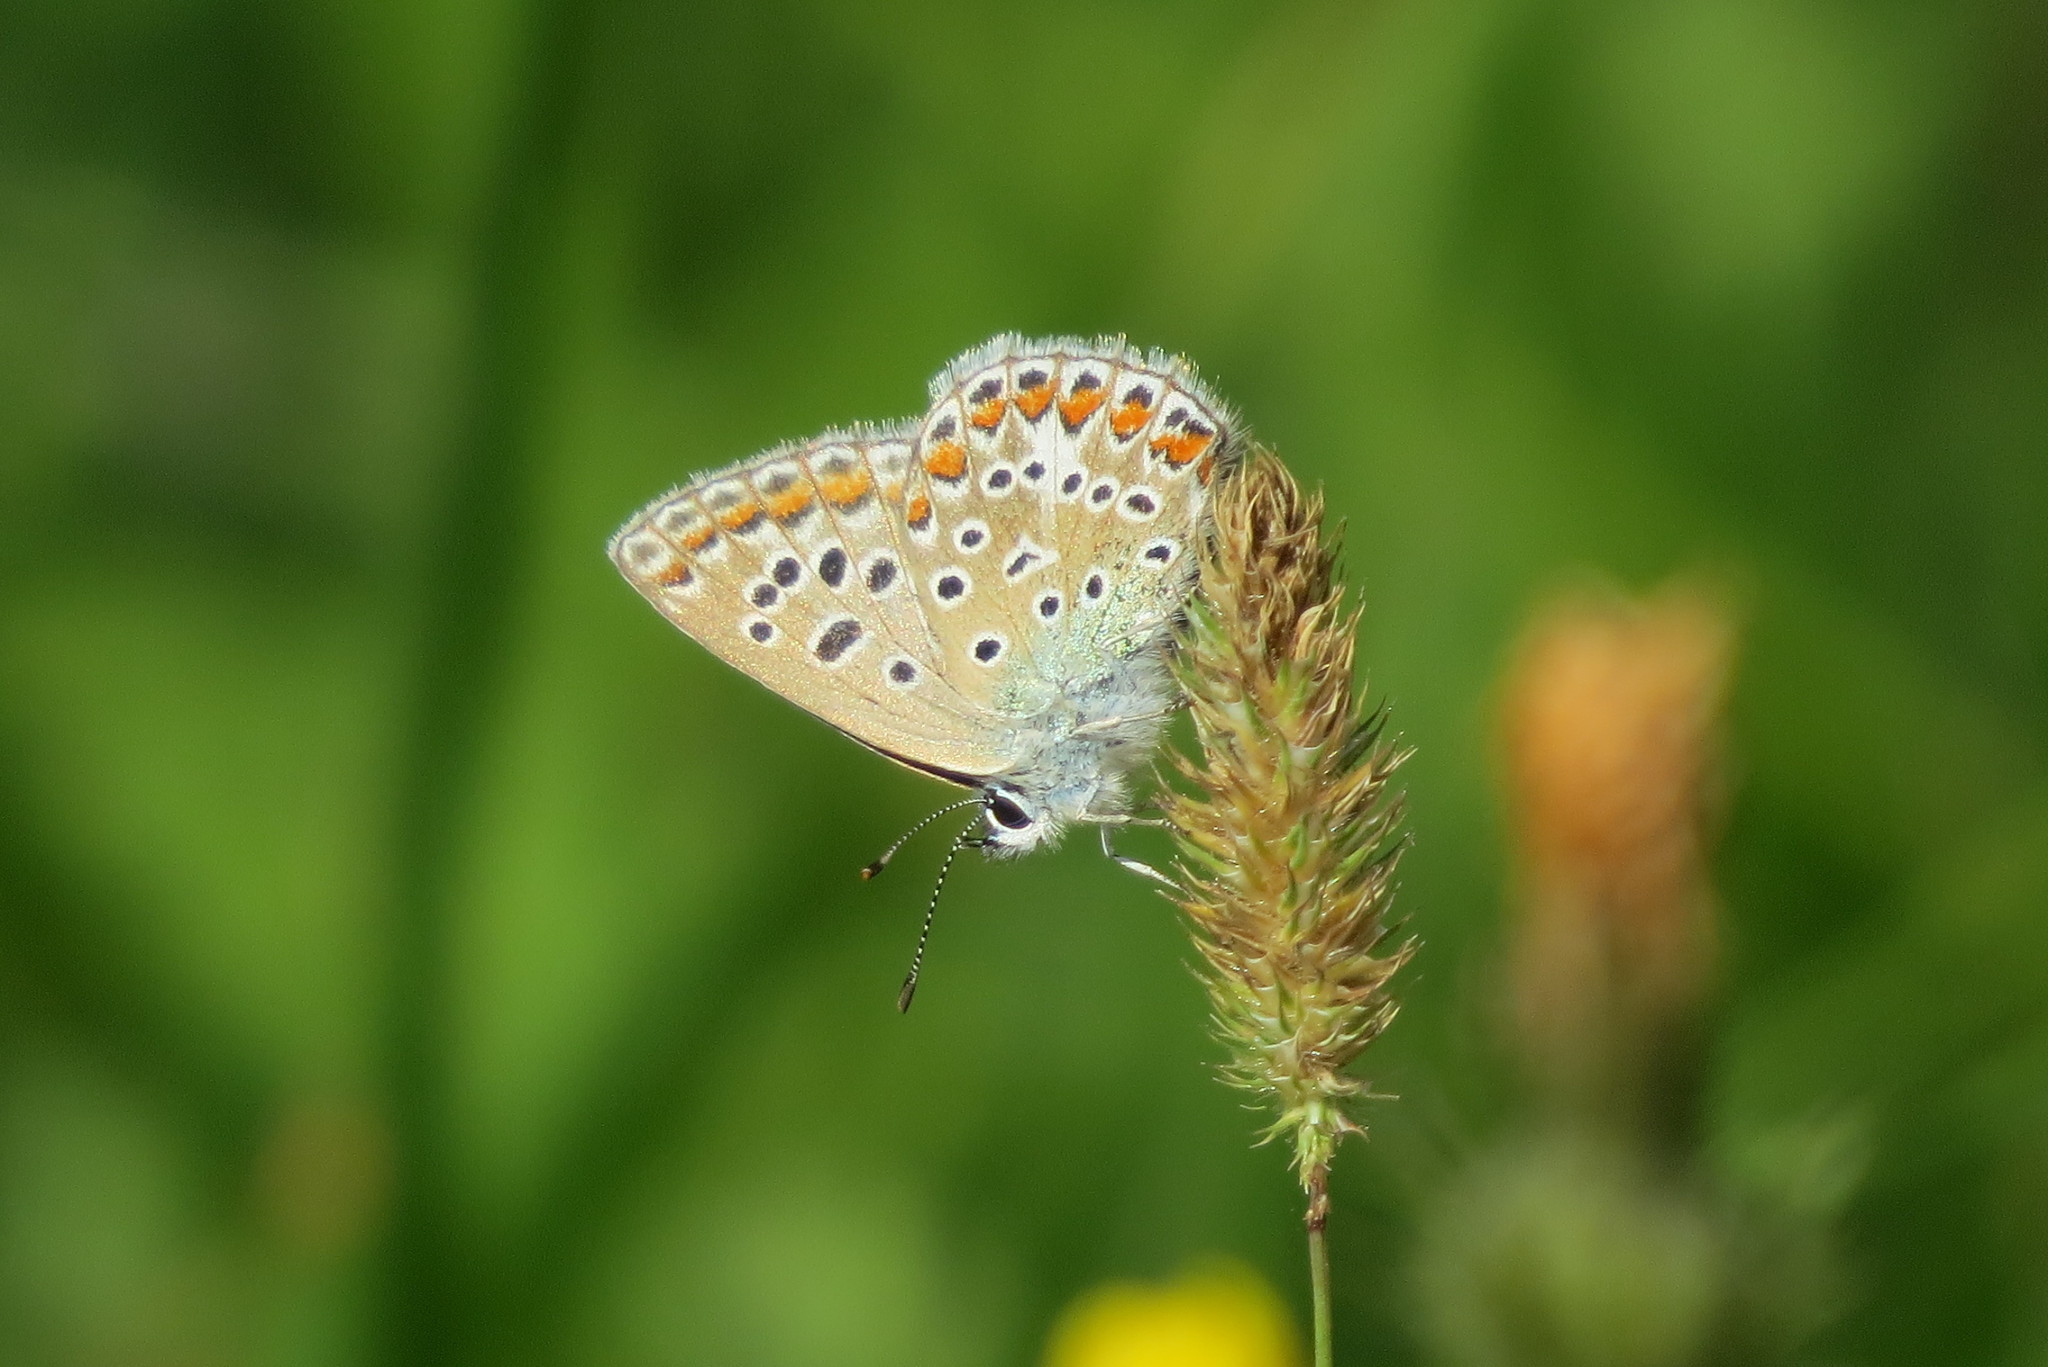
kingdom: Animalia
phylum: Arthropoda
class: Insecta
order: Lepidoptera
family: Lycaenidae
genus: Polyommatus
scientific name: Polyommatus icarus
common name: Common blue
